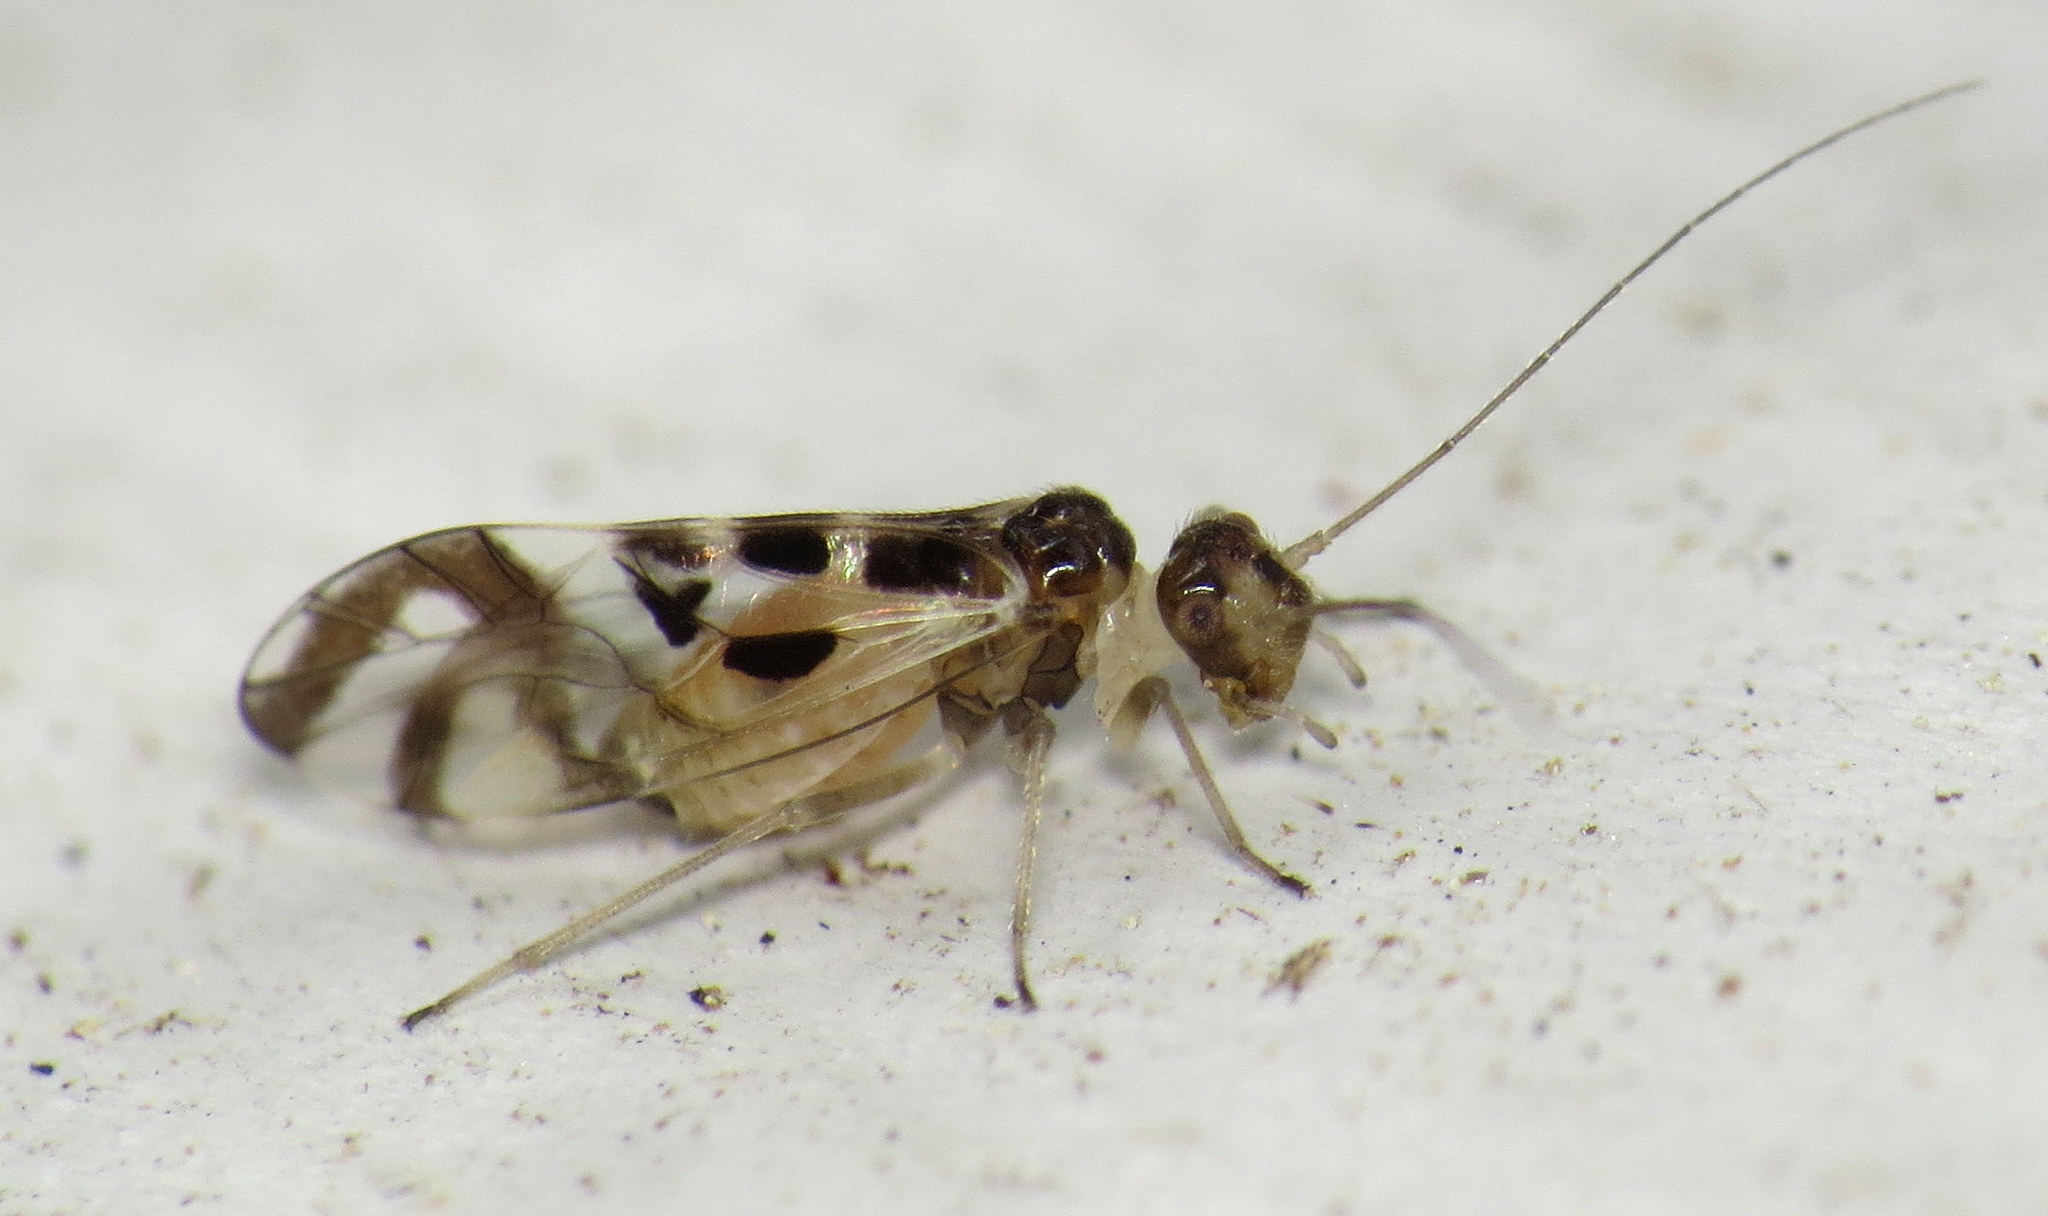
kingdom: Animalia
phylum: Arthropoda
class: Insecta
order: Psocodea
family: Stenopsocidae
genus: Graphopsocus
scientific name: Graphopsocus cruciatus
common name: Lizard bark louse
